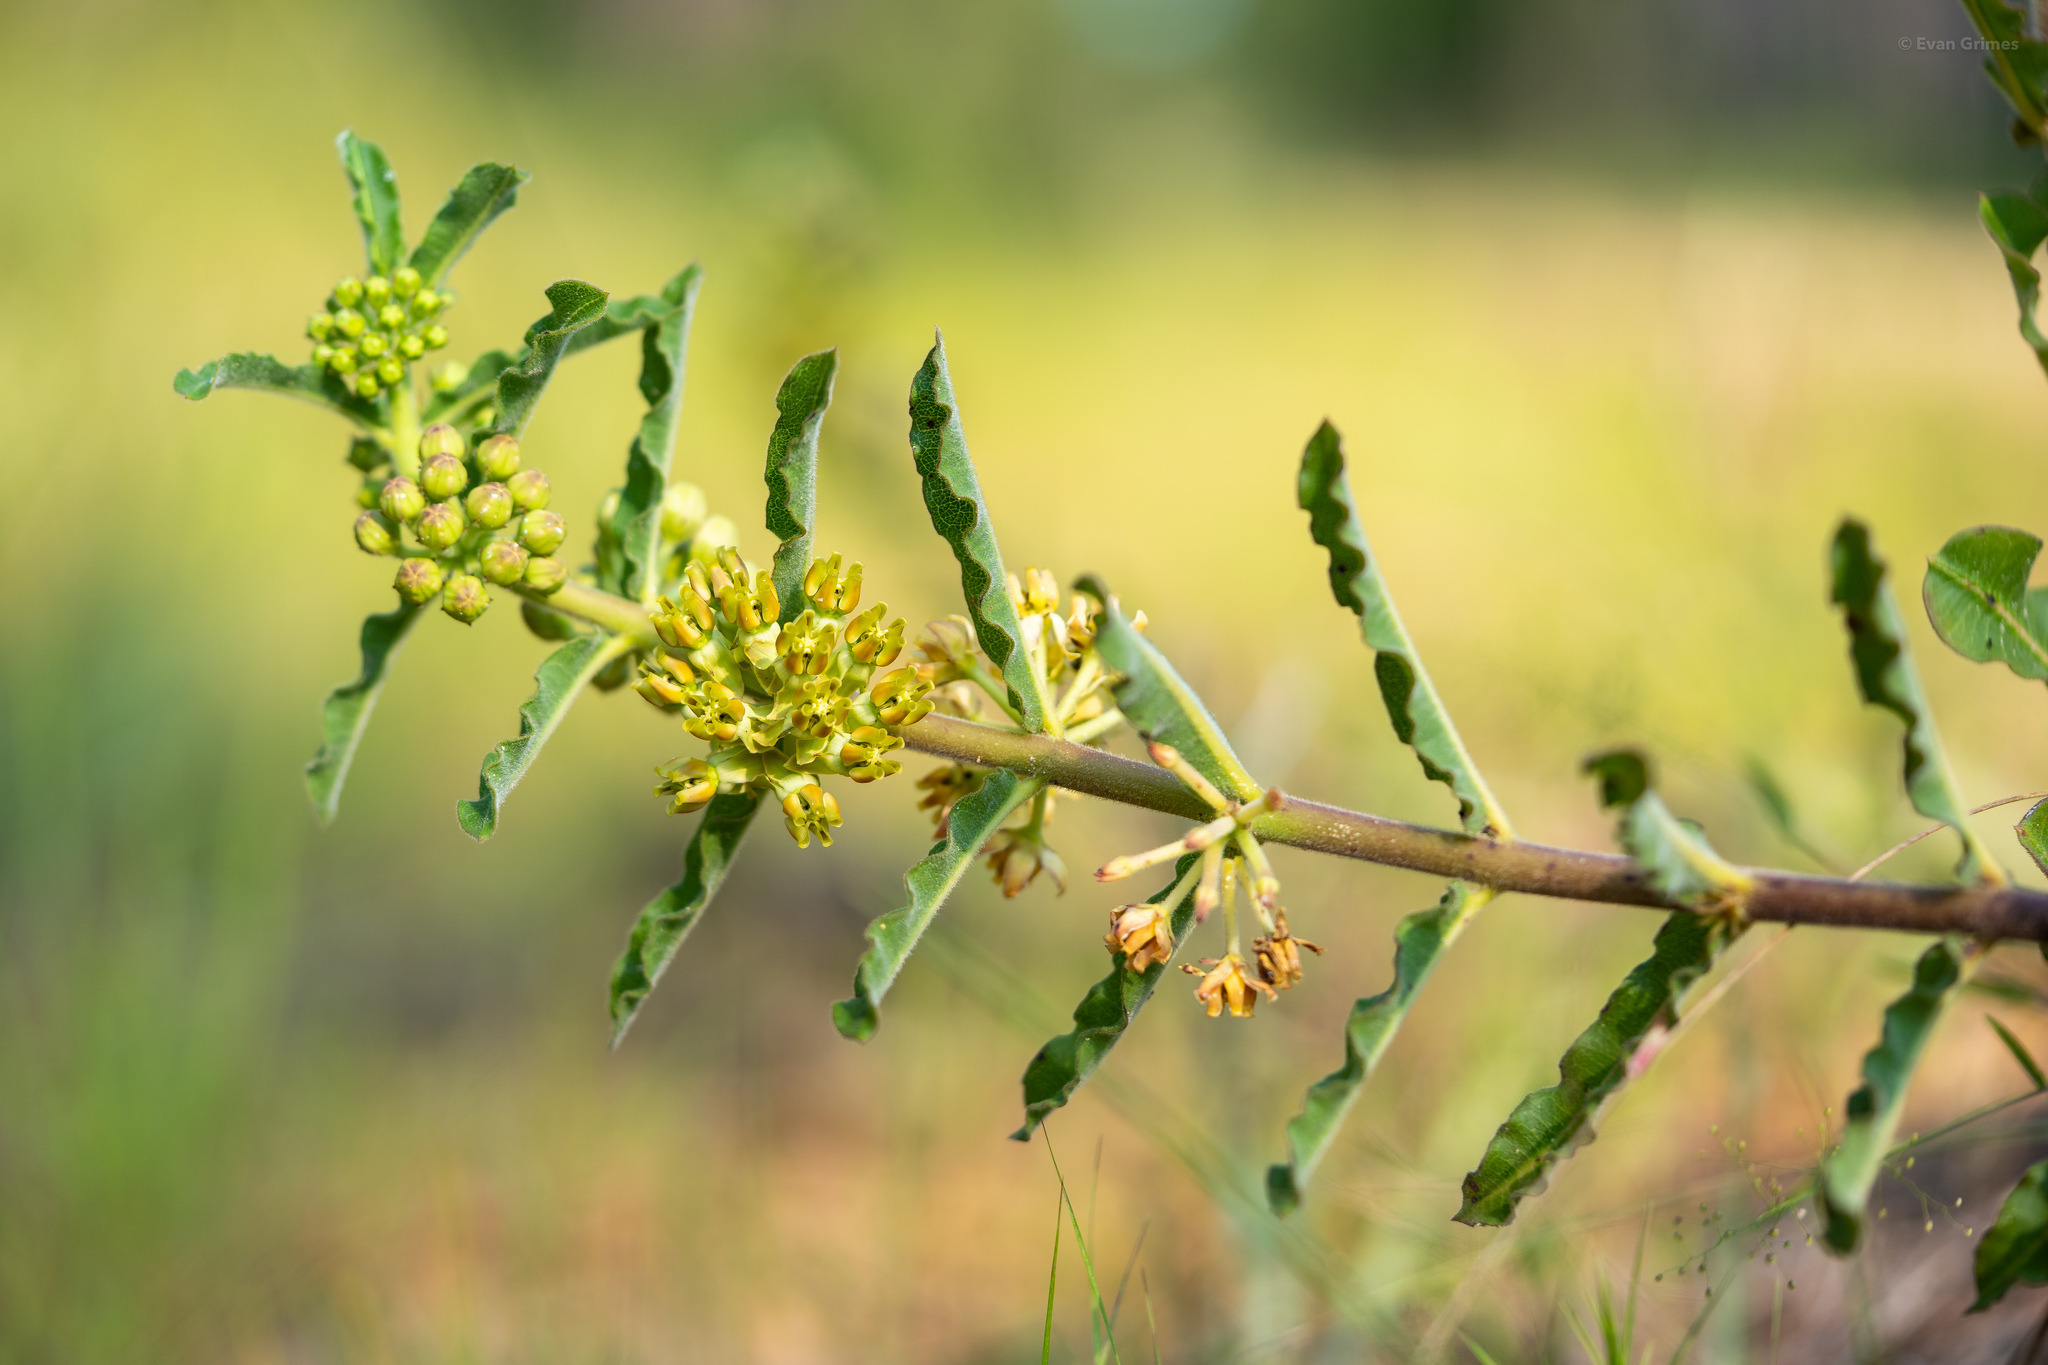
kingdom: Plantae
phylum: Tracheophyta
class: Magnoliopsida
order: Gentianales
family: Apocynaceae
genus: Asclepias
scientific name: Asclepias obovata
